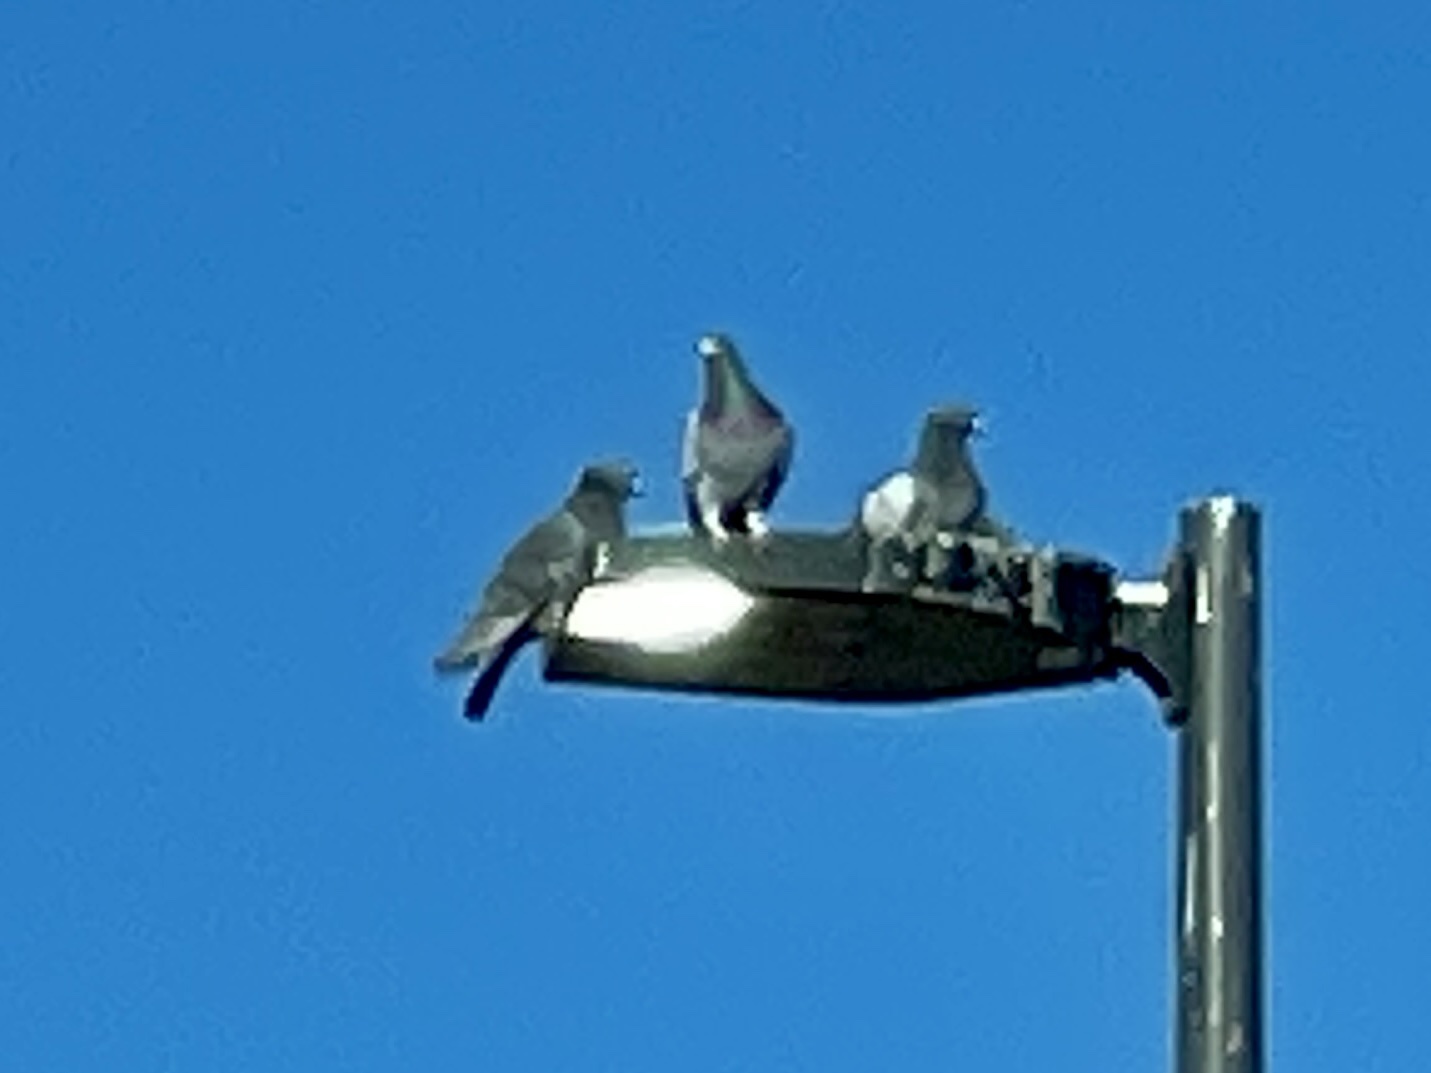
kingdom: Animalia
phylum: Chordata
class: Aves
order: Columbiformes
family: Columbidae
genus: Columba
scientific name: Columba livia
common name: Rock pigeon
